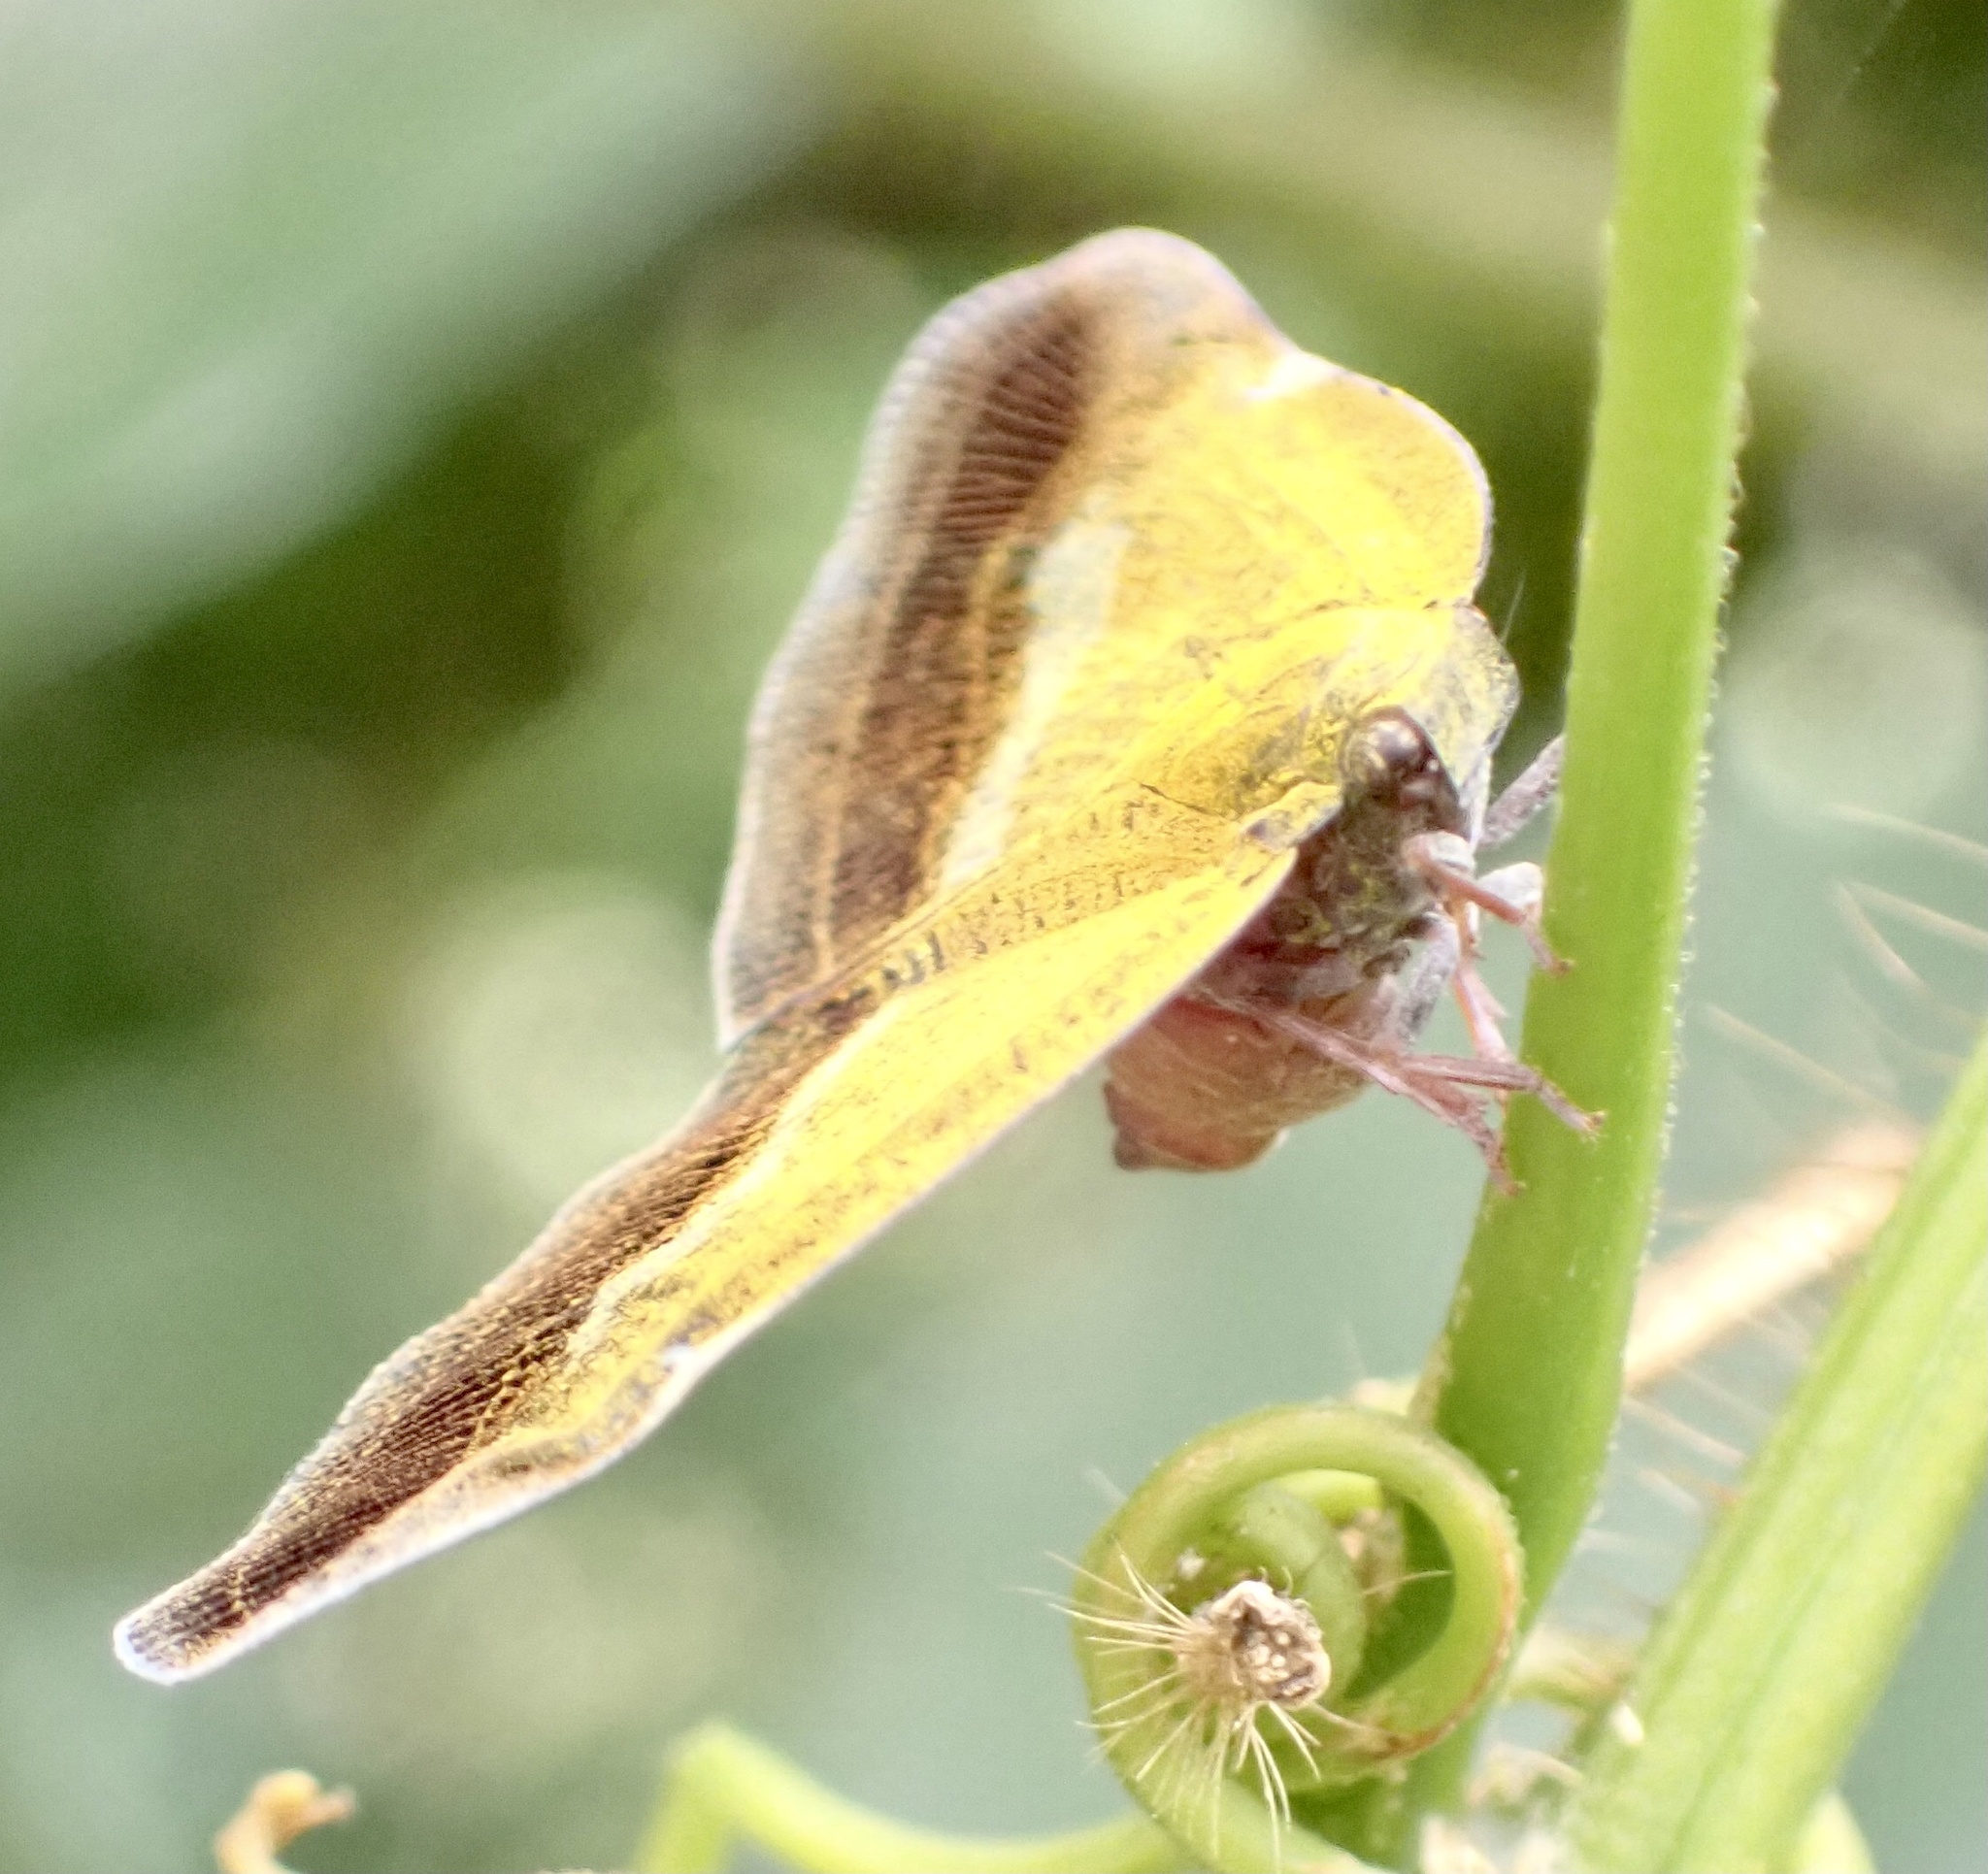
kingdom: Animalia
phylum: Arthropoda
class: Insecta
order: Hemiptera
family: Ricaniidae
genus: Pochazia
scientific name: Pochazia fasciata
